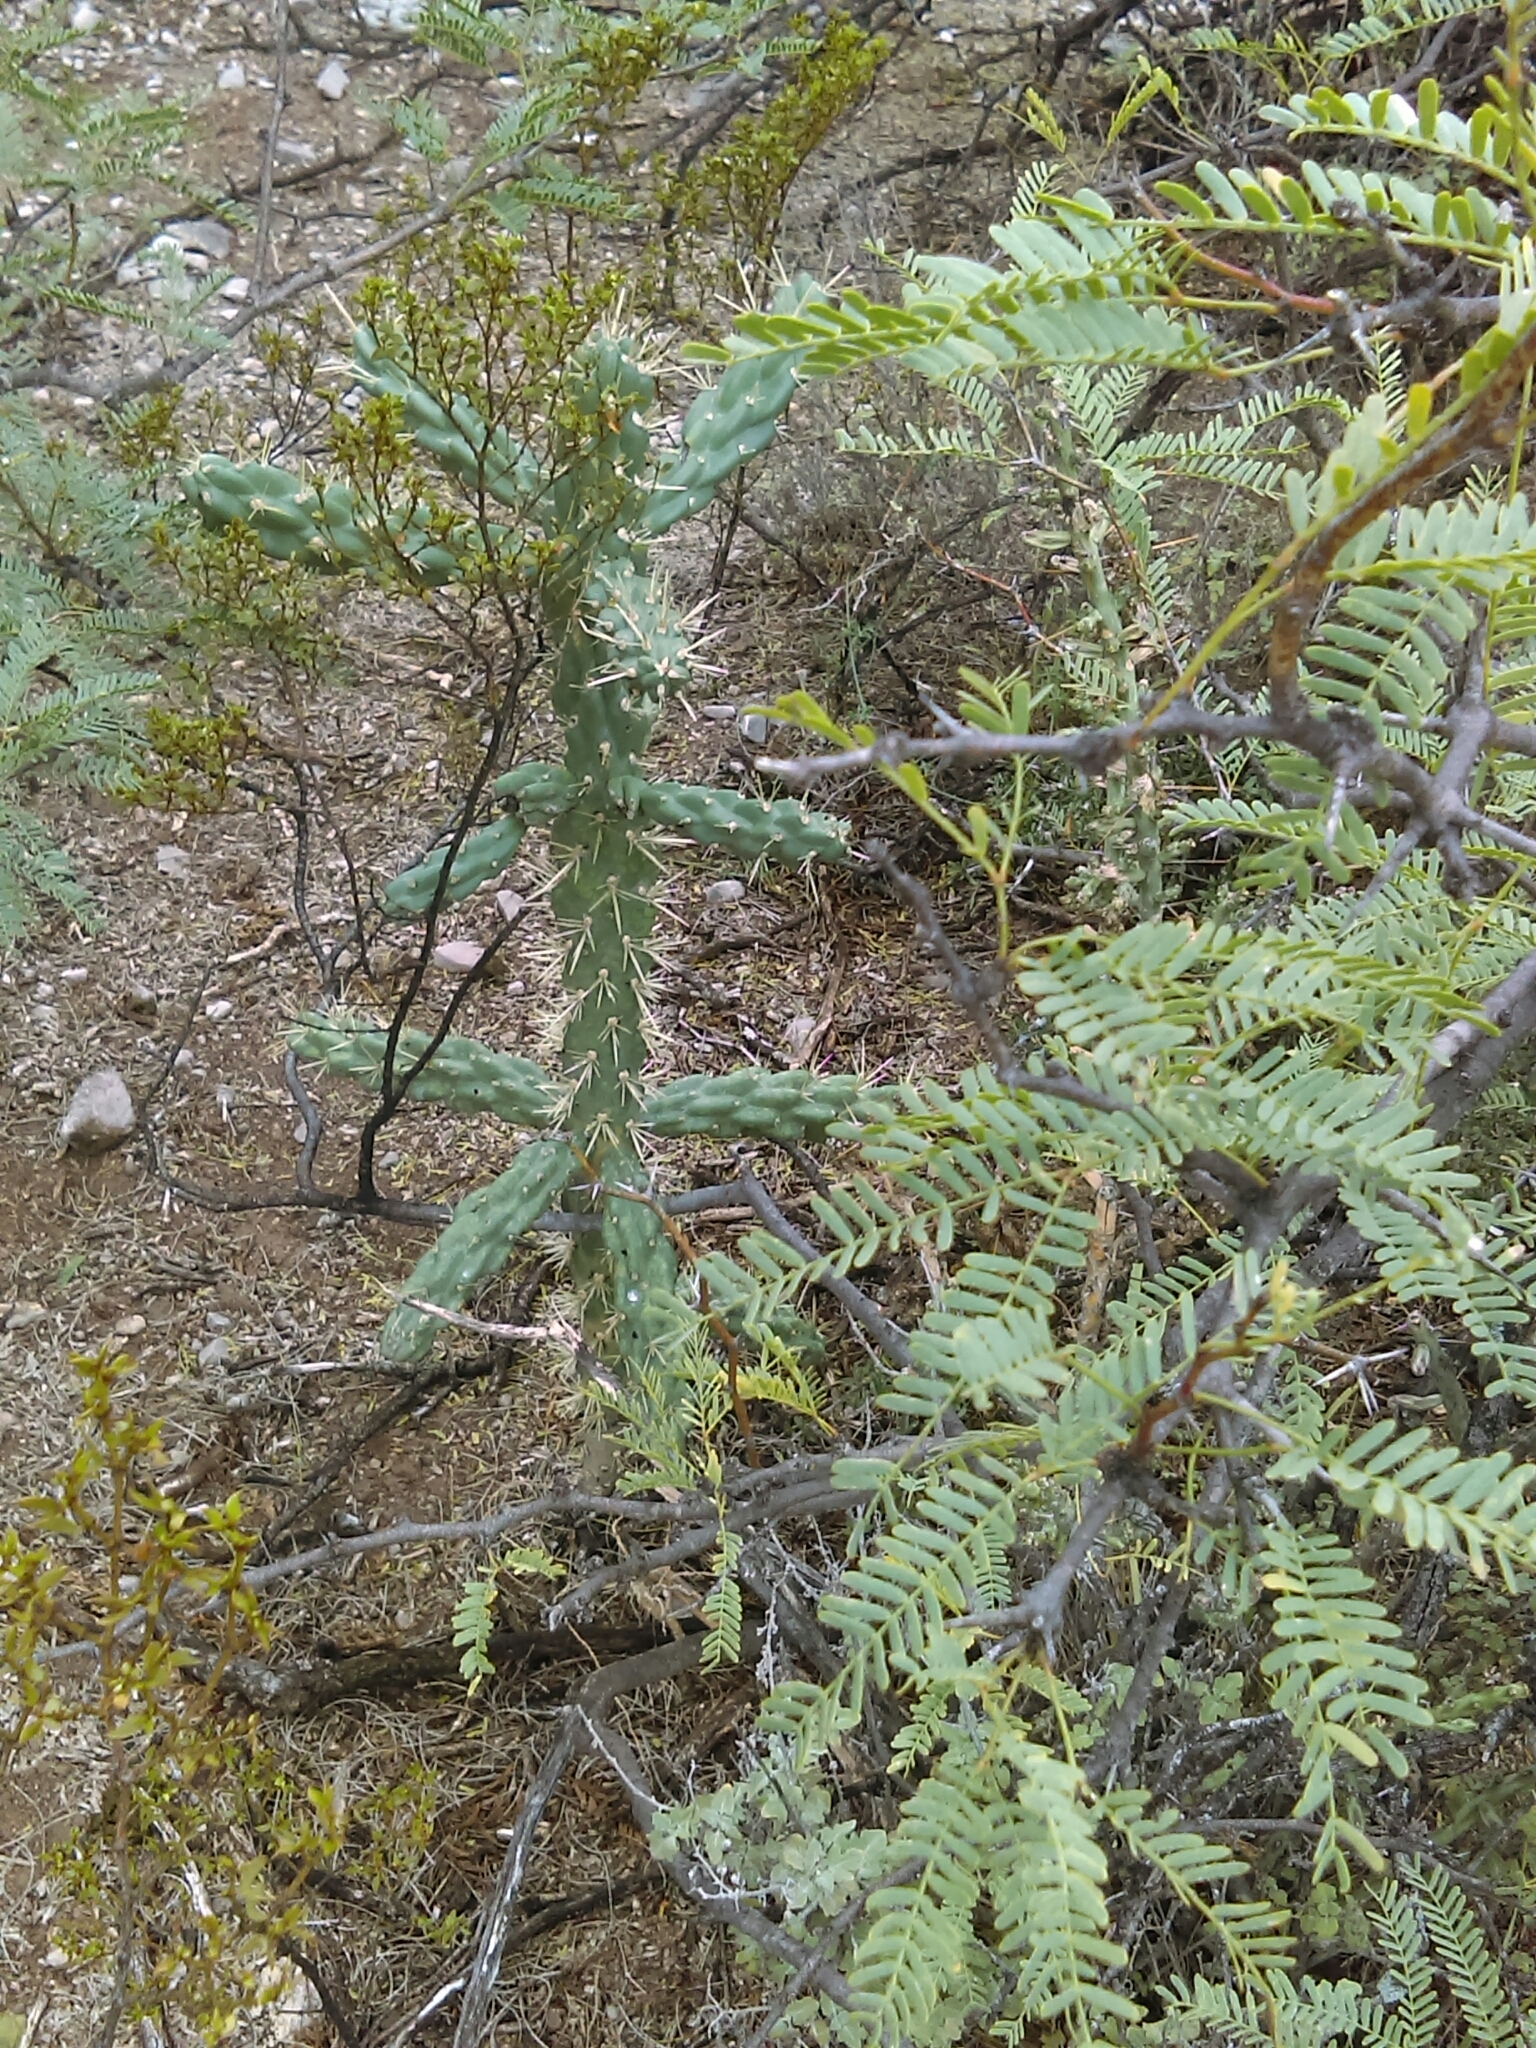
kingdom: Plantae
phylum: Tracheophyta
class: Magnoliopsida
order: Caryophyllales
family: Cactaceae
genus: Cylindropuntia
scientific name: Cylindropuntia imbricata
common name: Candelabrum cactus
